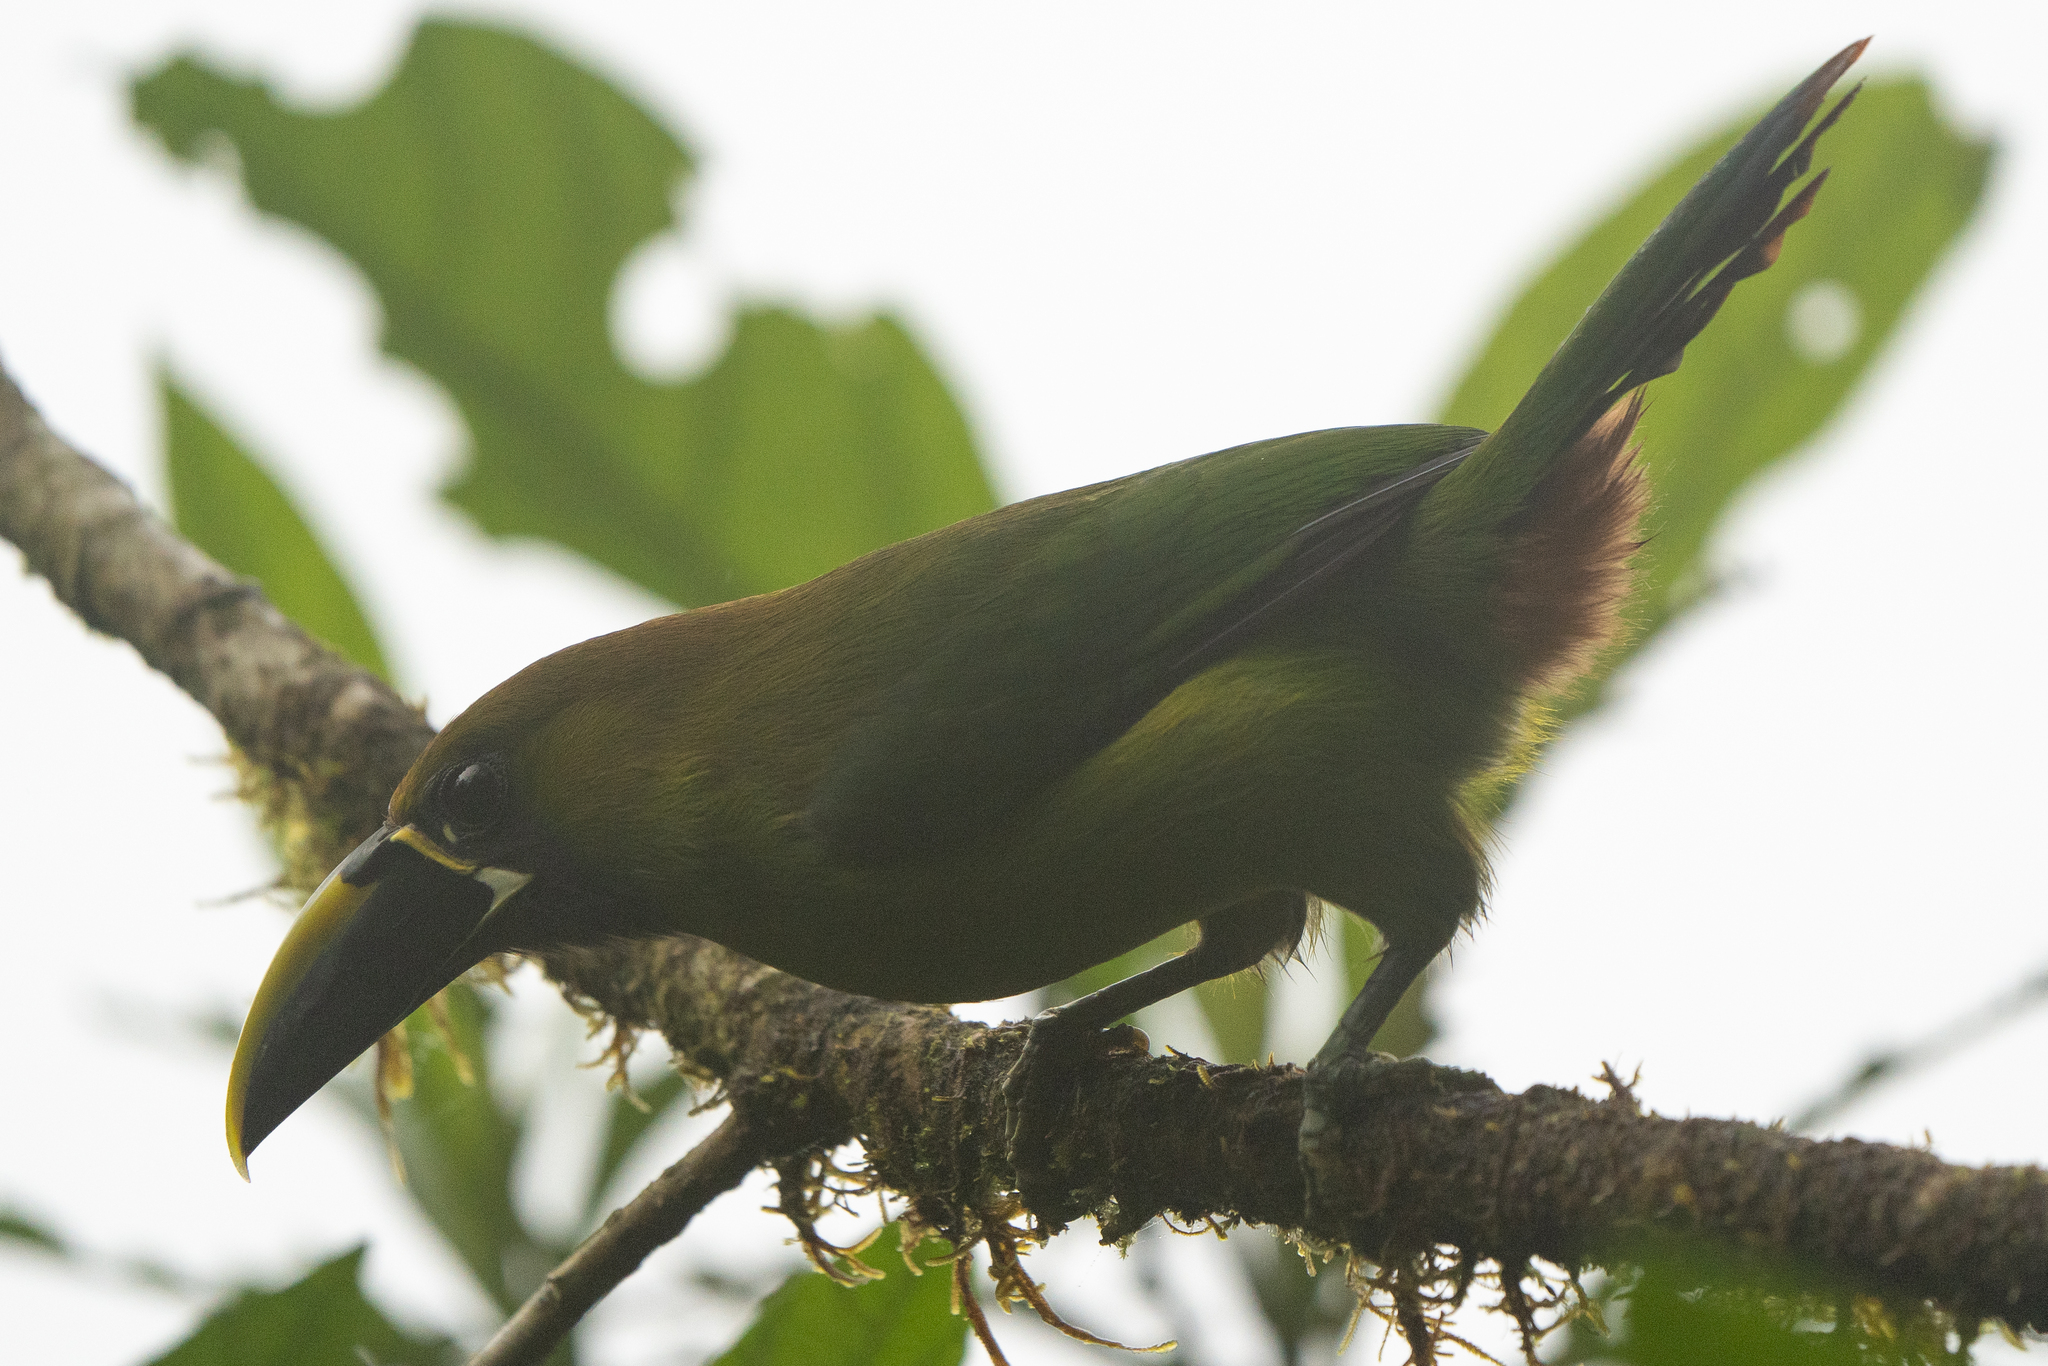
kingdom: Animalia
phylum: Chordata
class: Aves
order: Piciformes
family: Ramphastidae
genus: Aulacorhynchus
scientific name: Aulacorhynchus prasinus
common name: Emerald toucanet
